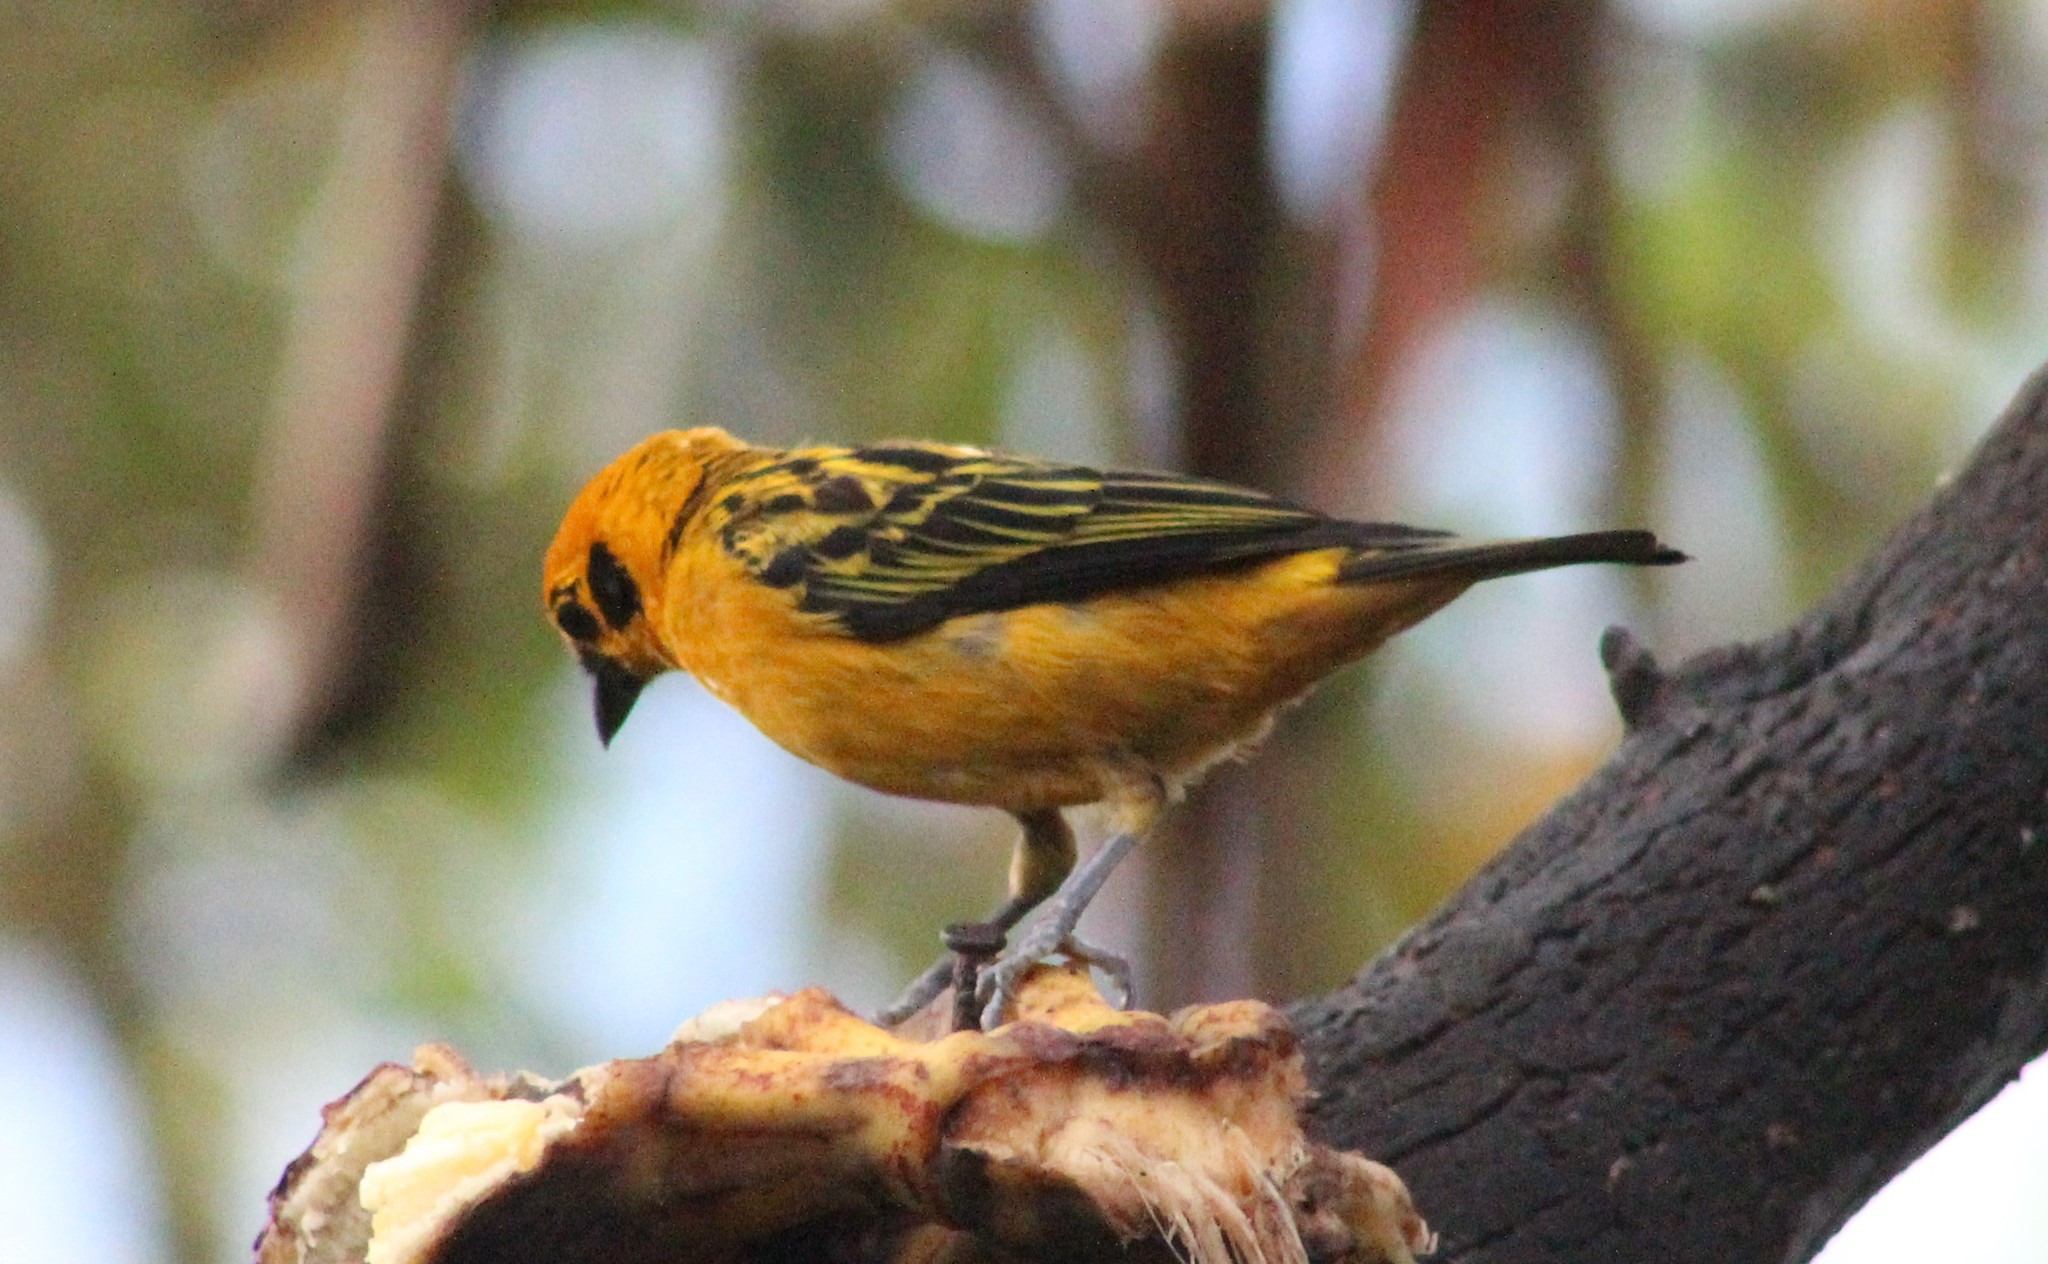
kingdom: Animalia
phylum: Chordata
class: Aves
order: Passeriformes
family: Thraupidae
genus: Tangara
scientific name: Tangara arthus
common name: Golden tanager
